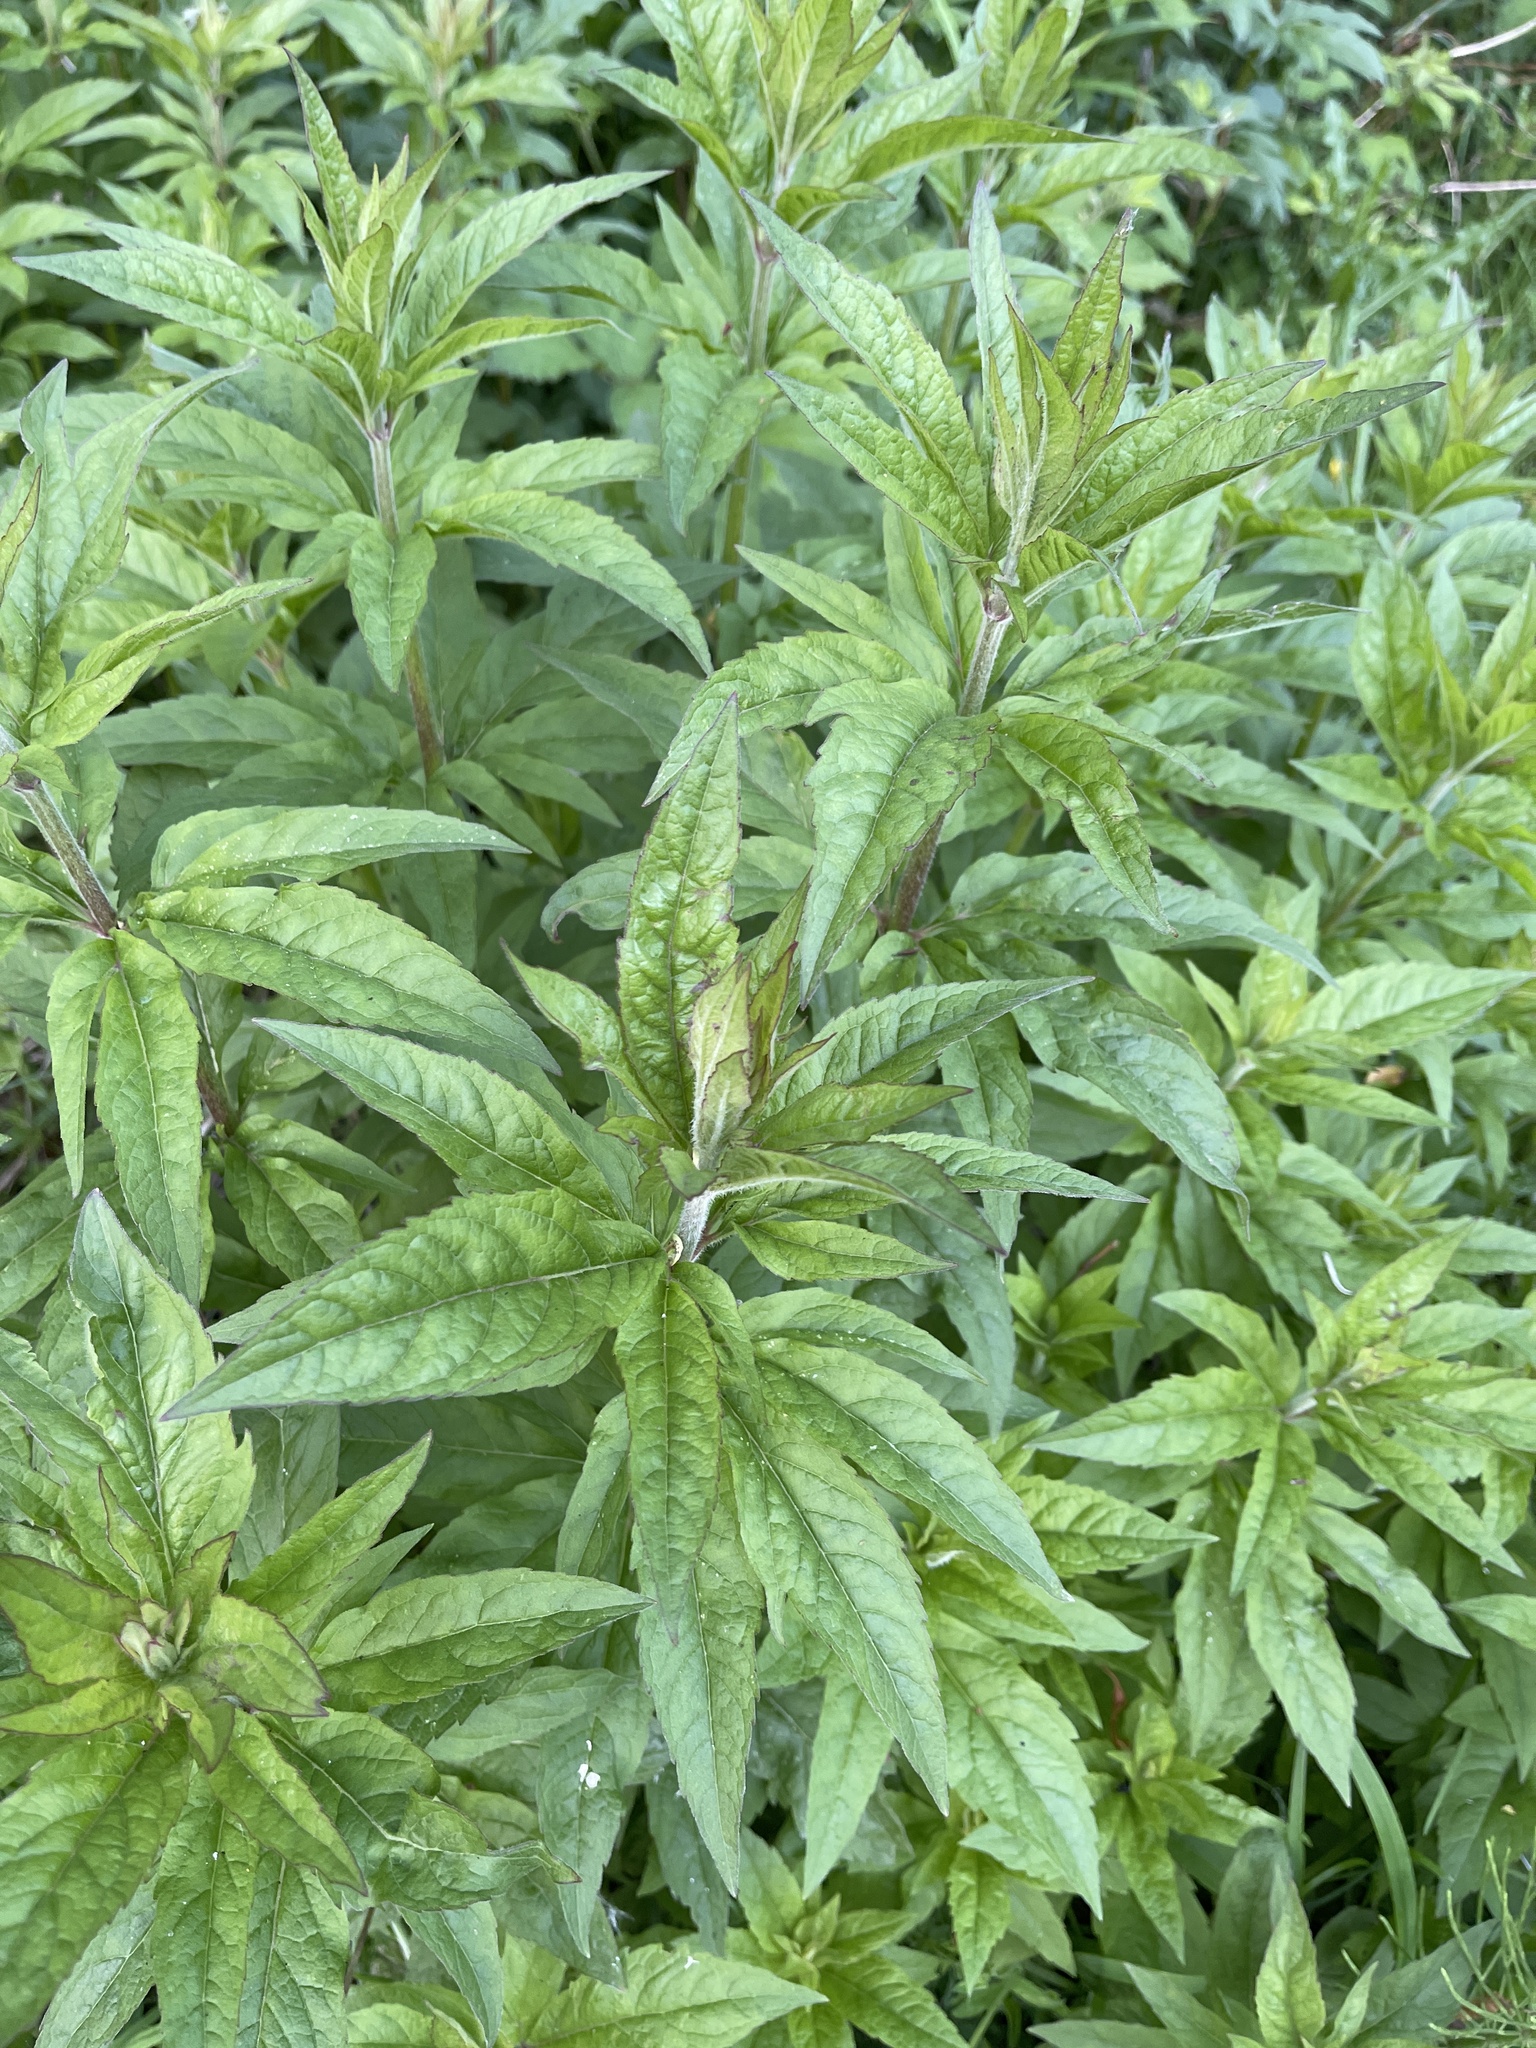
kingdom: Plantae
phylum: Tracheophyta
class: Magnoliopsida
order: Asterales
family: Asteraceae
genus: Eupatorium
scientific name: Eupatorium cannabinum
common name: Hemp-agrimony
